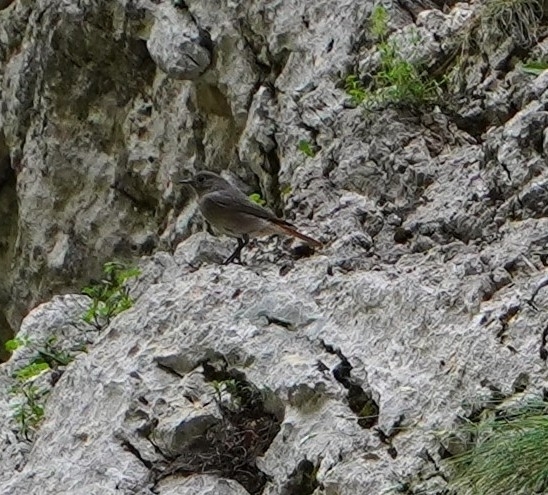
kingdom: Animalia
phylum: Chordata
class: Aves
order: Passeriformes
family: Muscicapidae
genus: Phoenicurus
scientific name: Phoenicurus ochruros
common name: Black redstart
